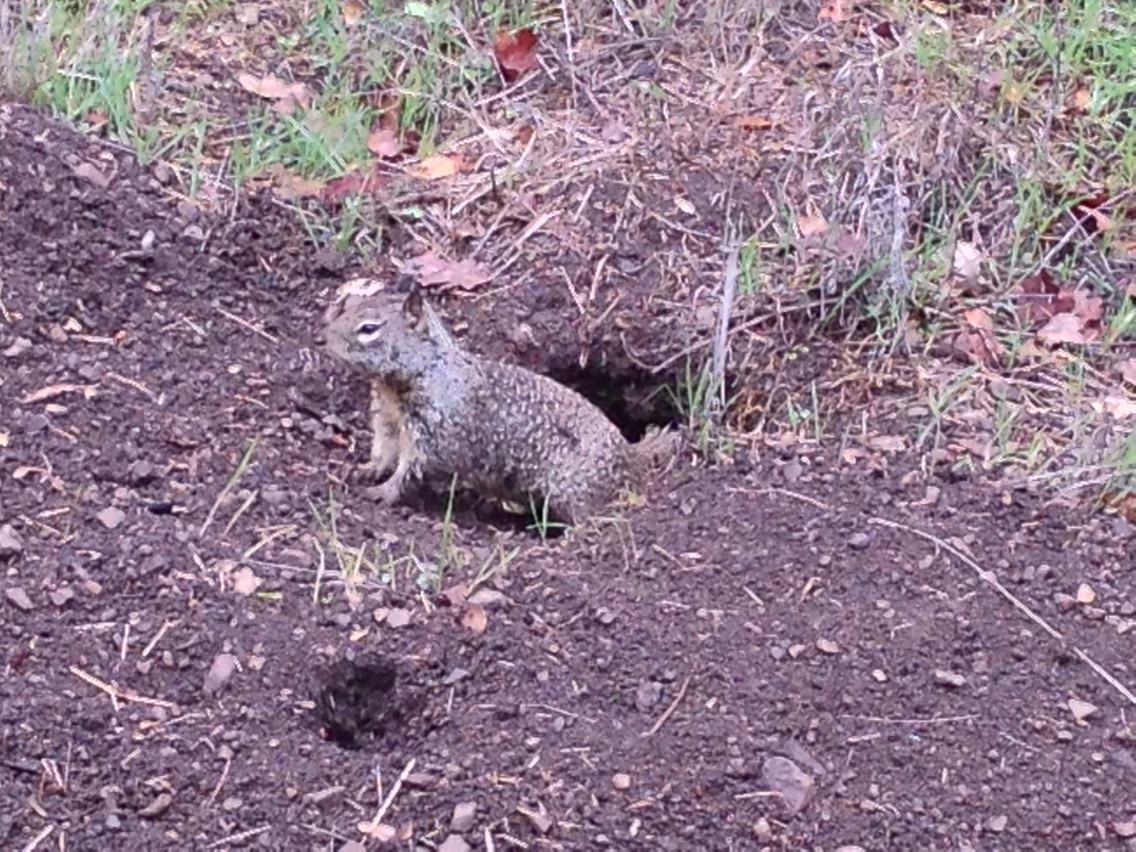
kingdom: Animalia
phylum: Chordata
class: Mammalia
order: Rodentia
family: Sciuridae
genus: Otospermophilus
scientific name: Otospermophilus beecheyi
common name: California ground squirrel
